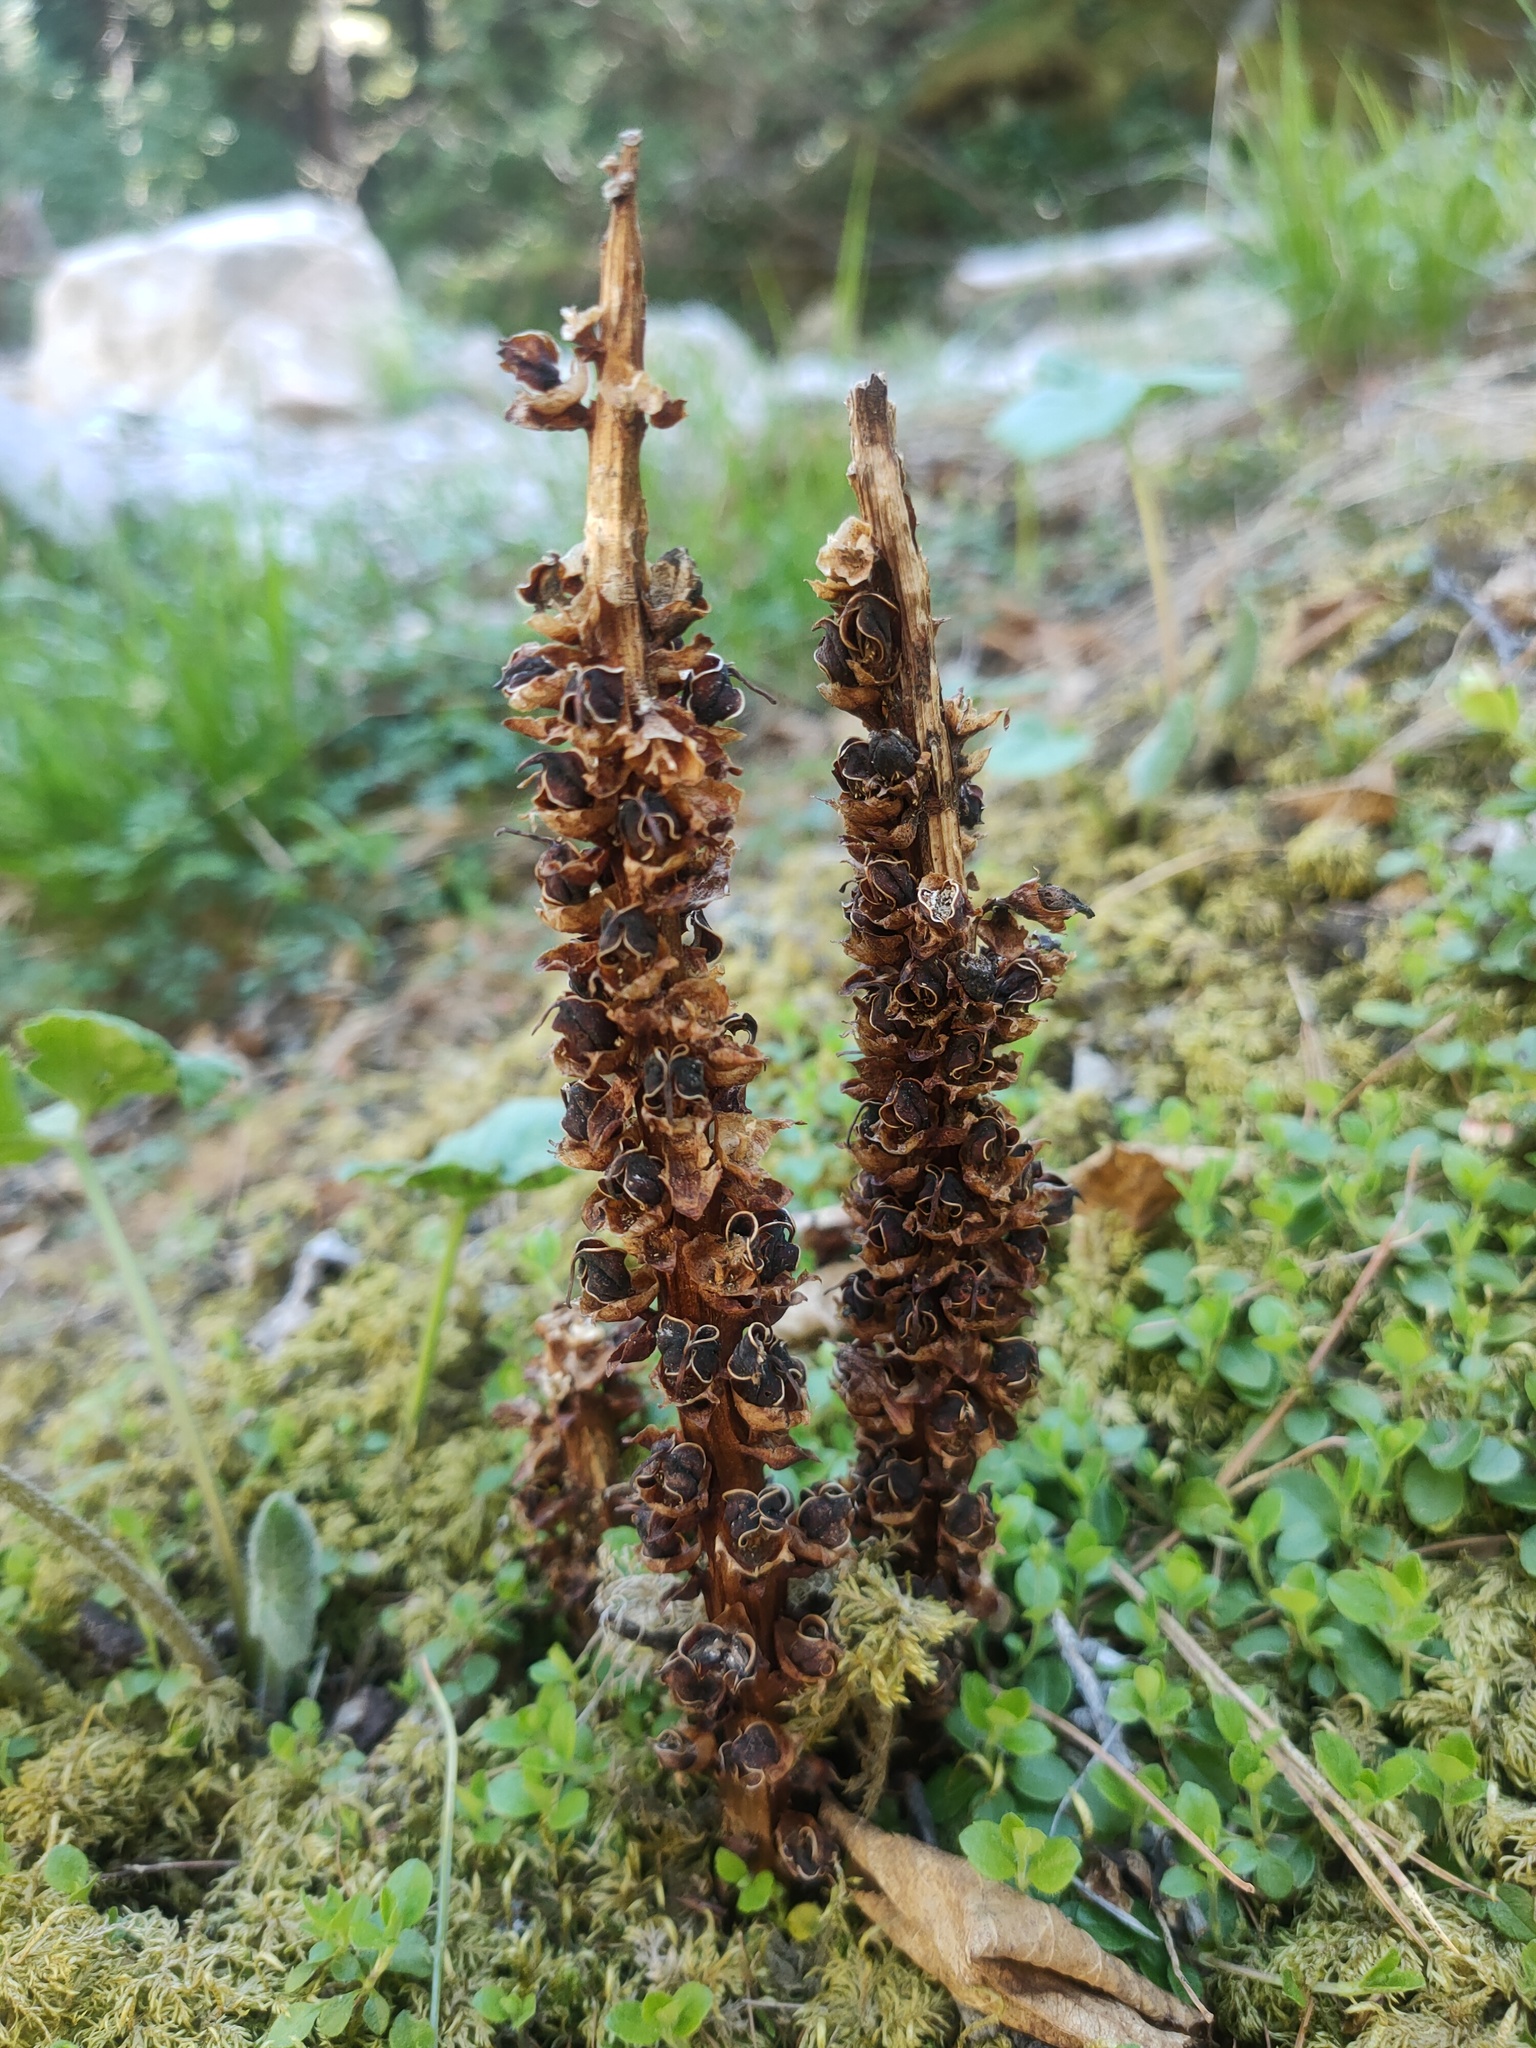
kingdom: Plantae
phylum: Tracheophyta
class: Magnoliopsida
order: Lamiales
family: Orobanchaceae
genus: Boschniakia
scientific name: Boschniakia rossica
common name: Poque
